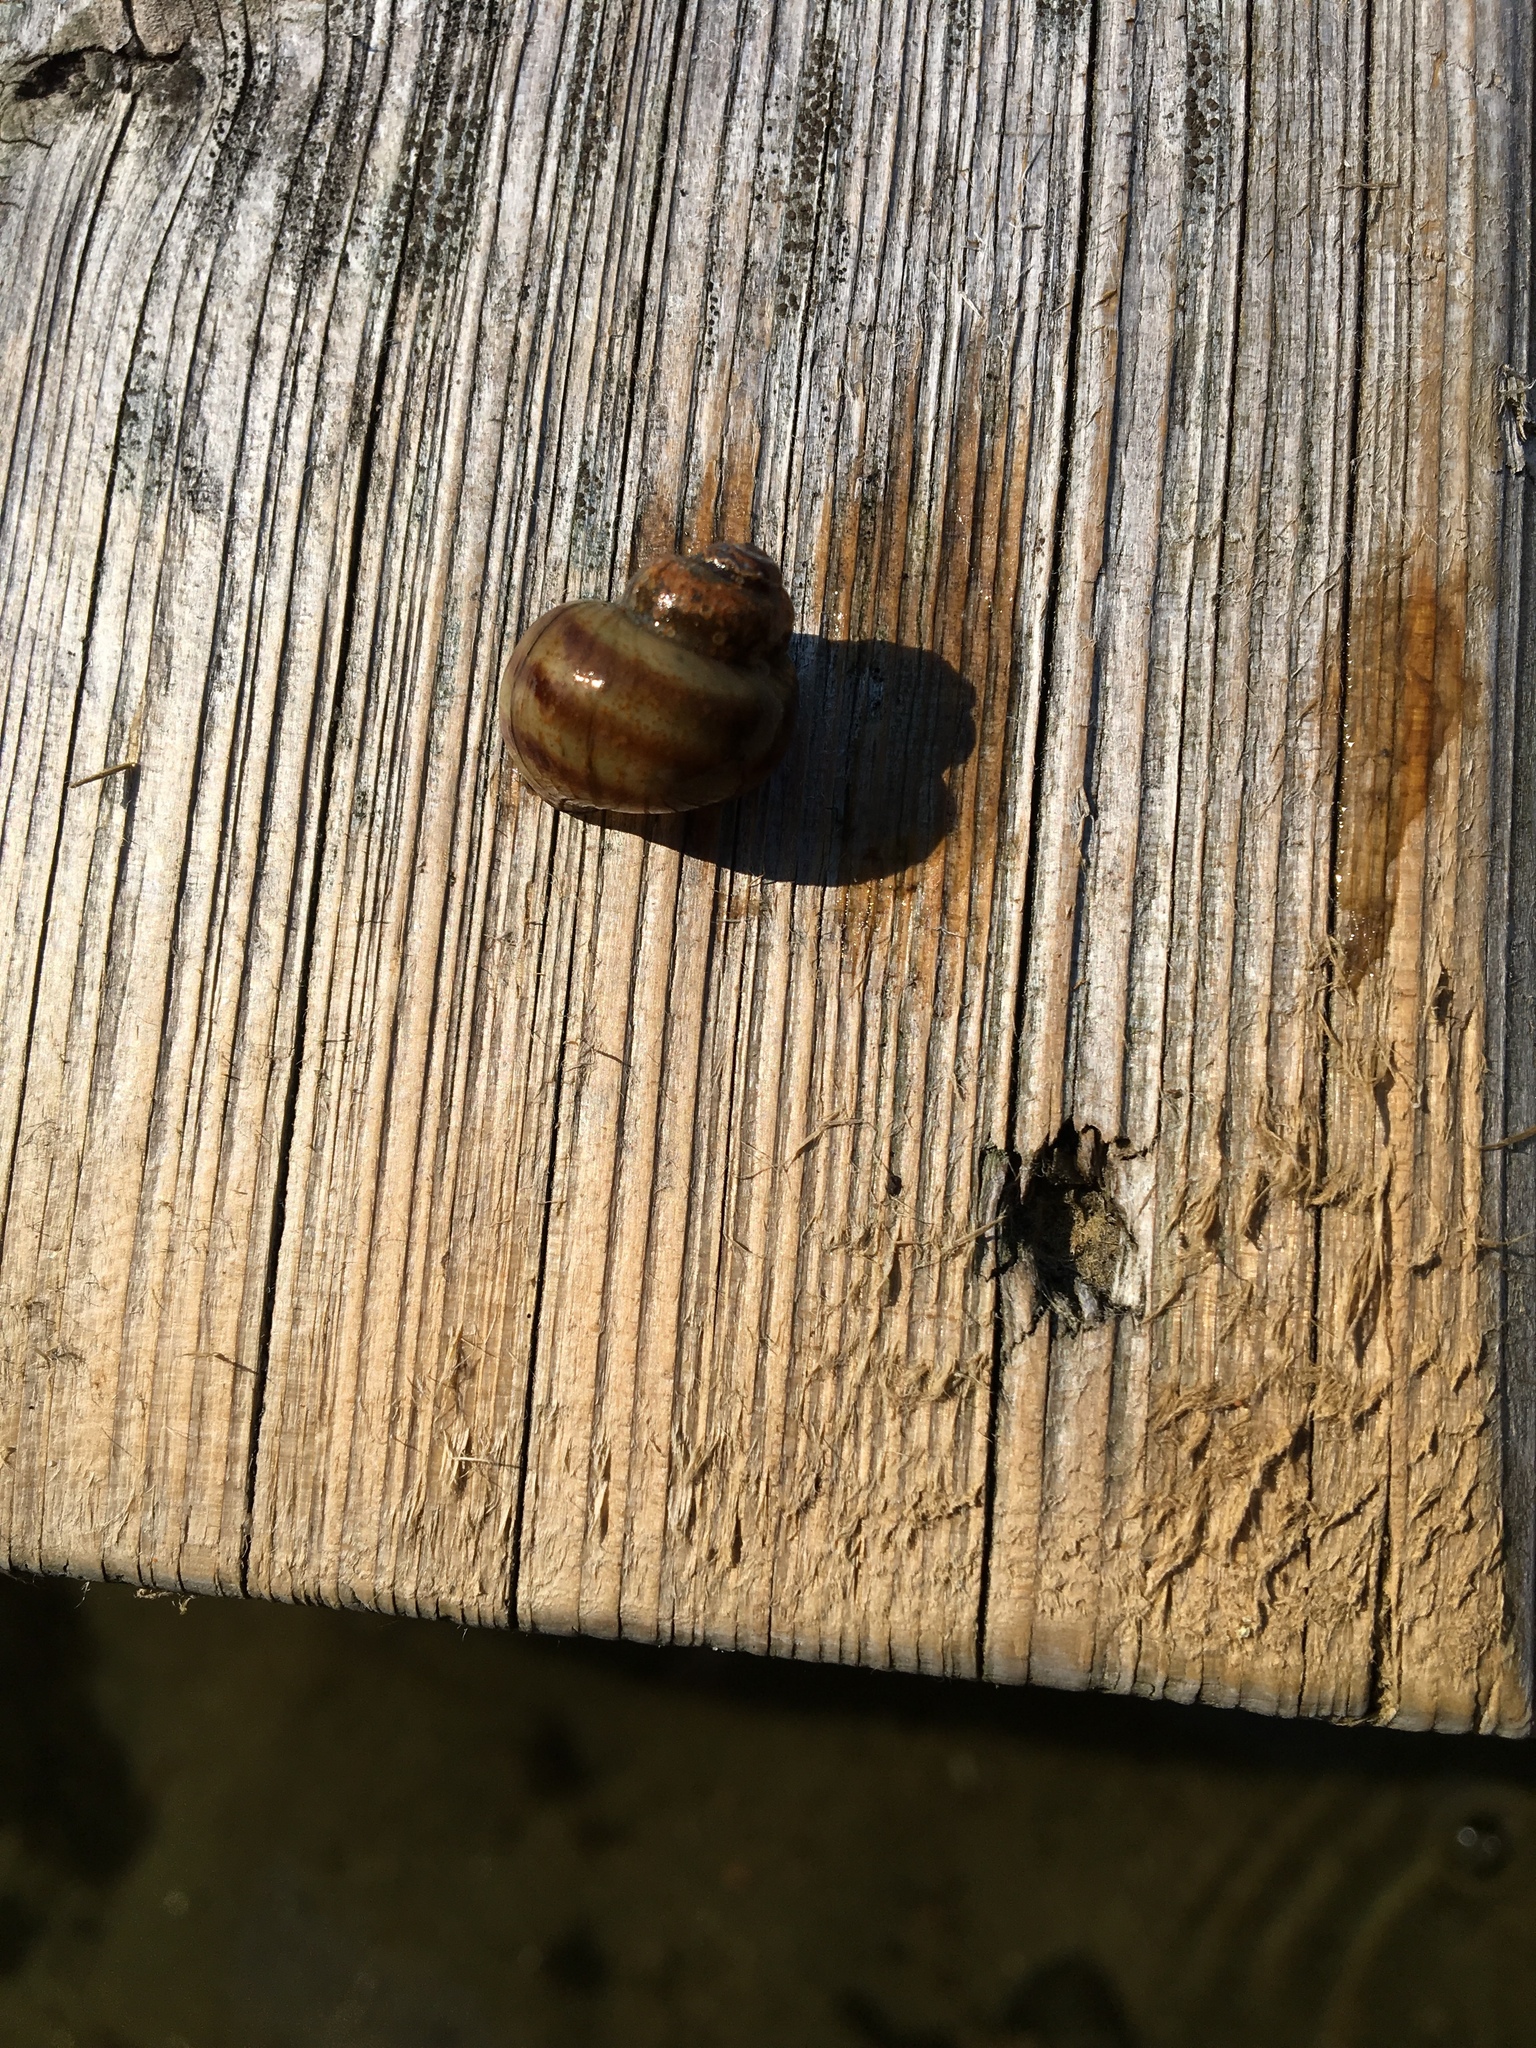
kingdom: Animalia
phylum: Mollusca
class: Gastropoda
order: Architaenioglossa
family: Viviparidae
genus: Callinina
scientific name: Callinina georgiana
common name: Banded mystery snail
